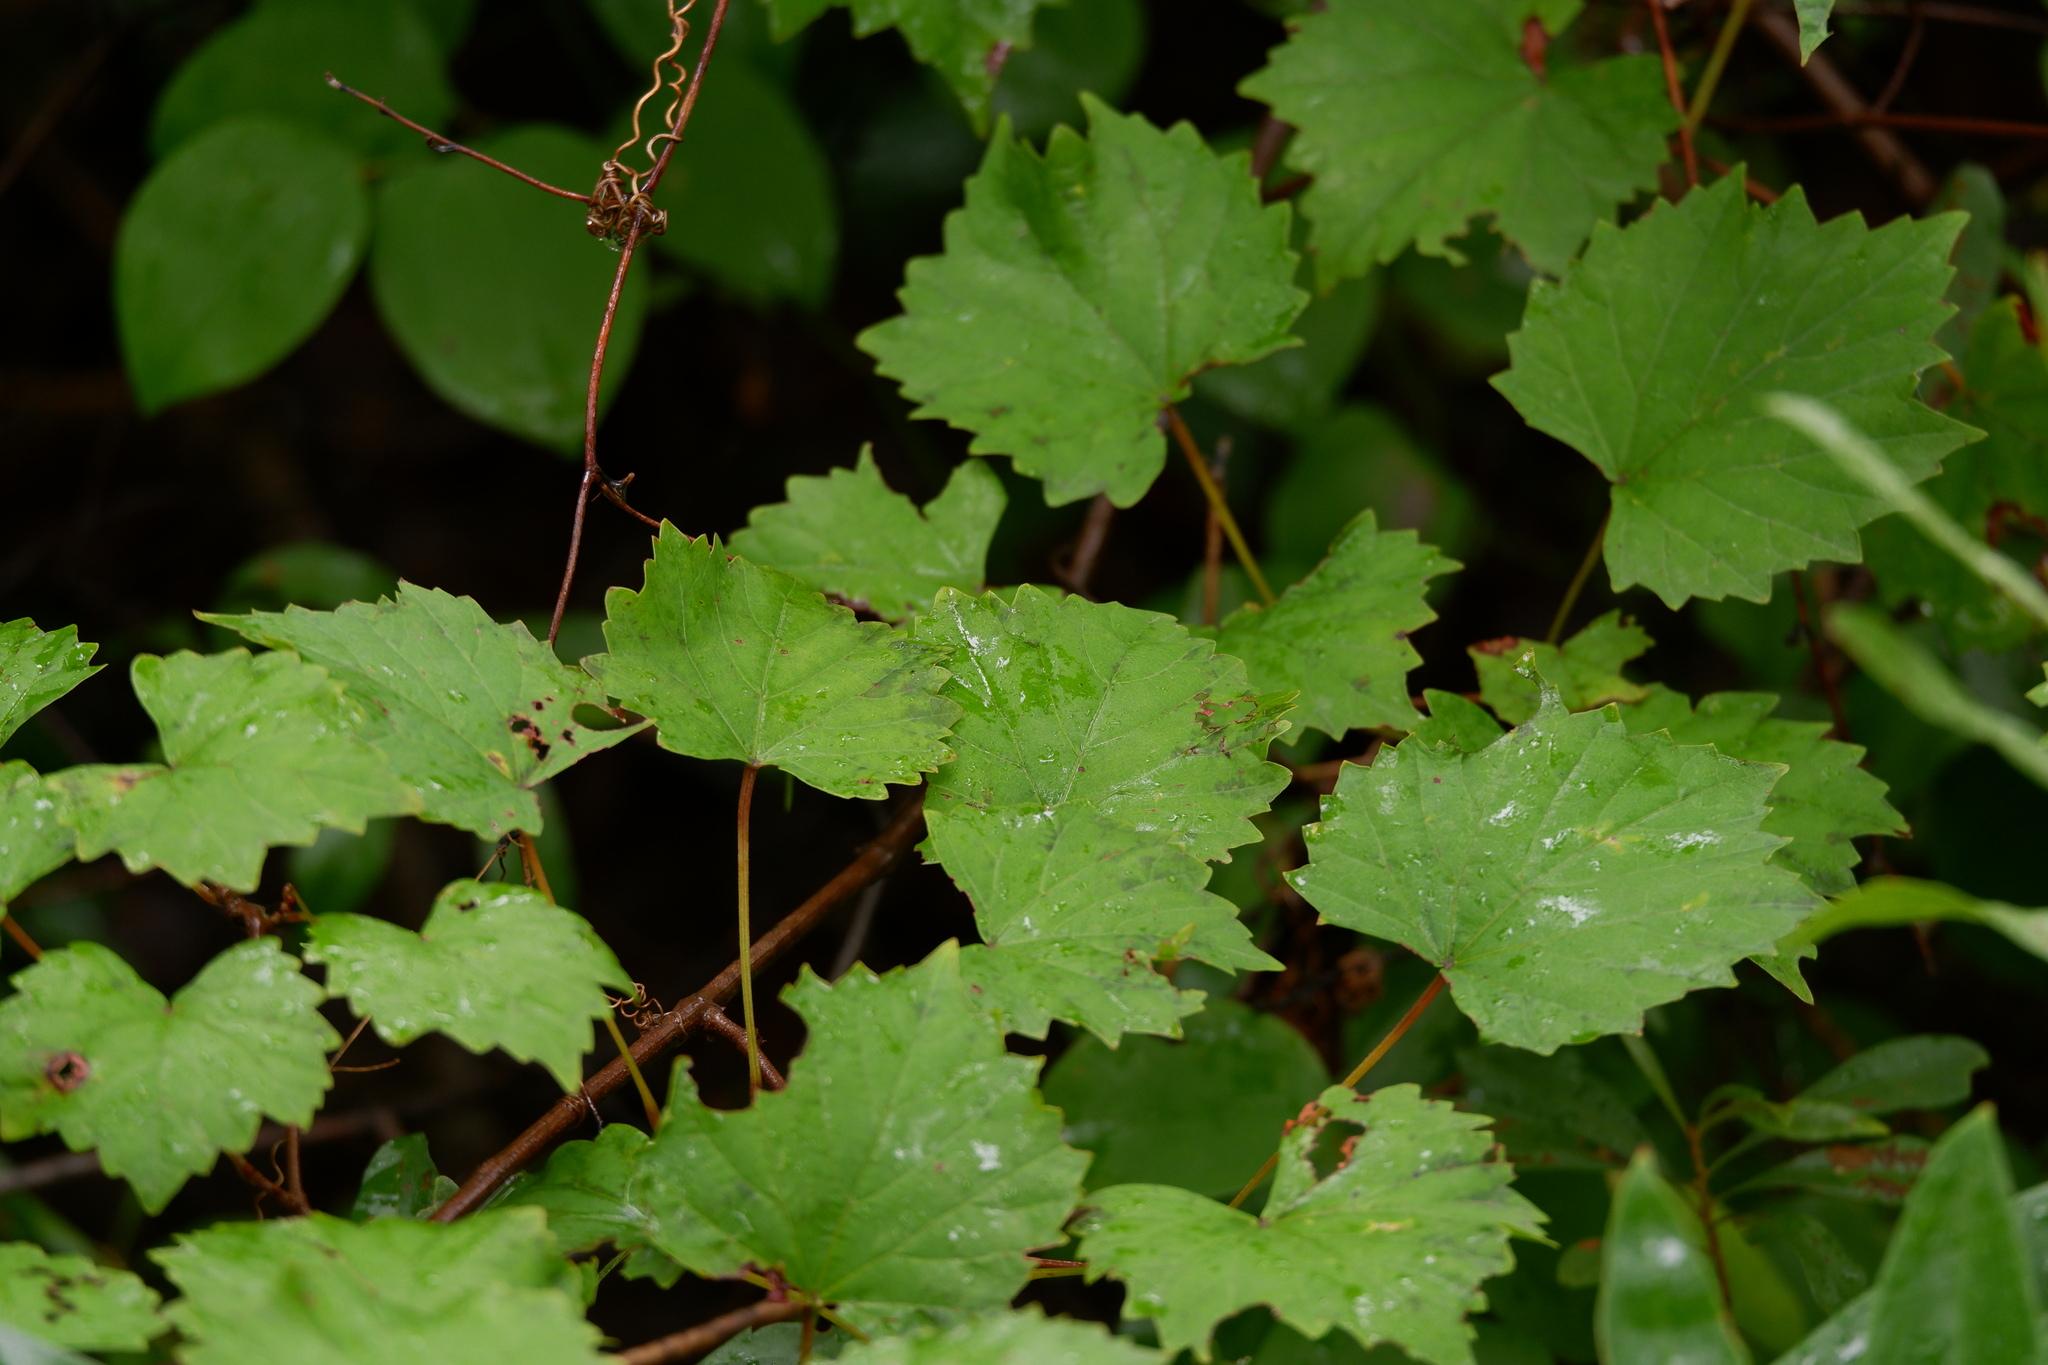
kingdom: Plantae
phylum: Tracheophyta
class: Magnoliopsida
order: Vitales
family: Vitaceae
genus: Vitis
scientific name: Vitis rotundifolia
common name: Muscadine grape
